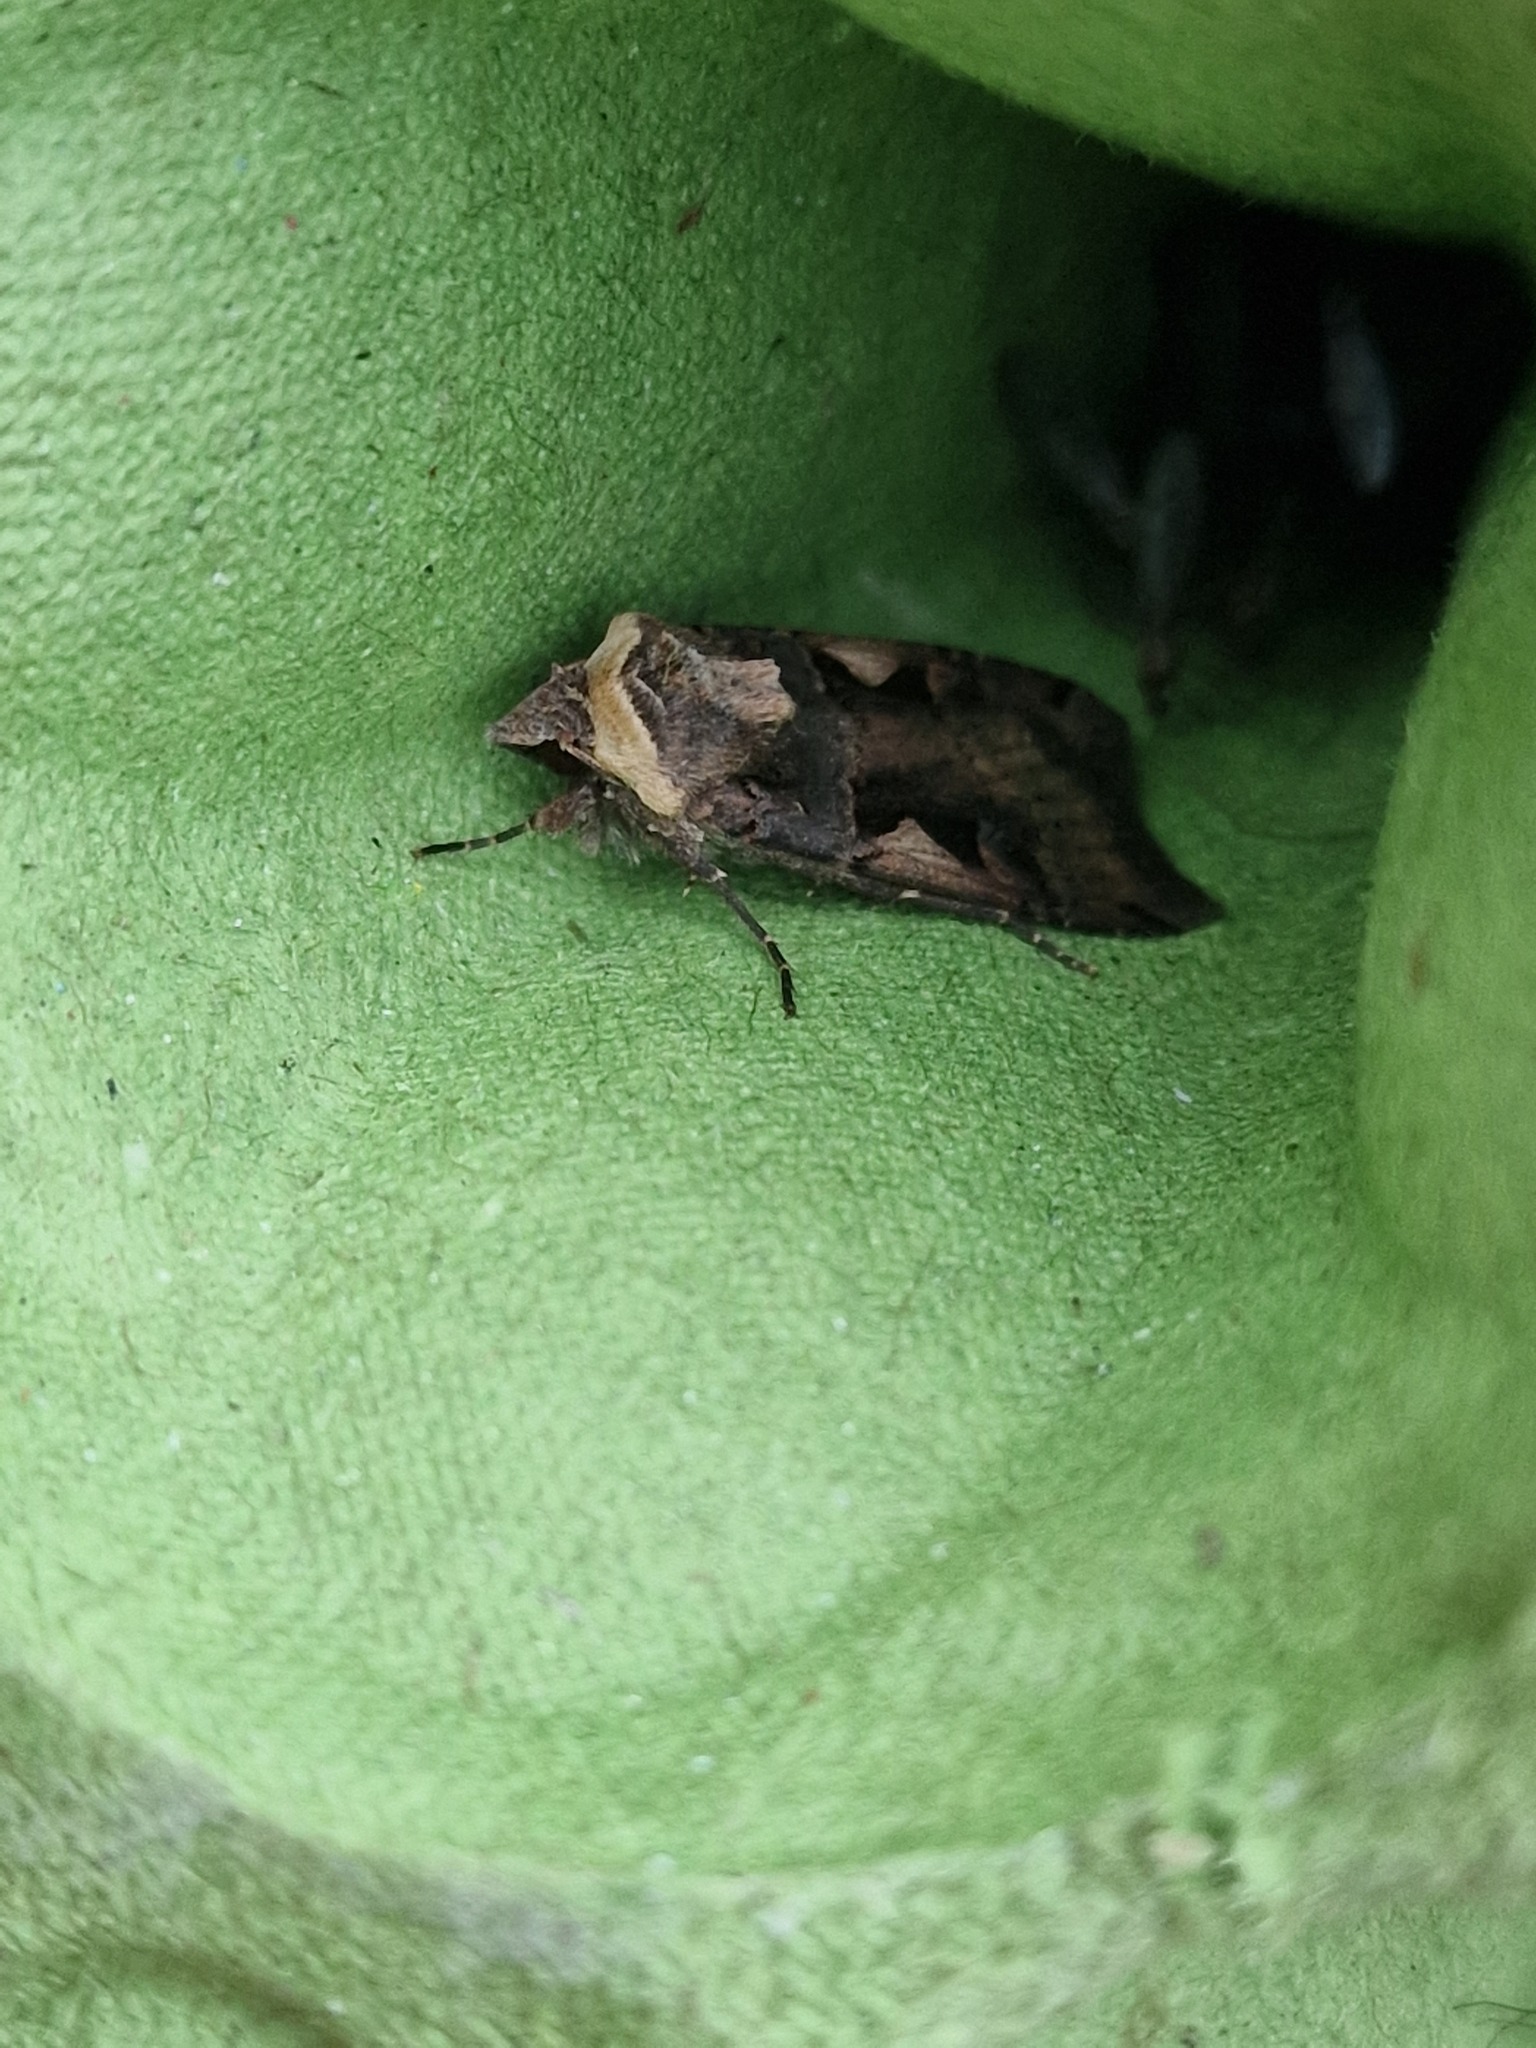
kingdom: Animalia
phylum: Arthropoda
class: Insecta
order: Lepidoptera
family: Noctuidae
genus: Xestia
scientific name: Xestia c-nigrum
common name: Setaceous hebrew character
